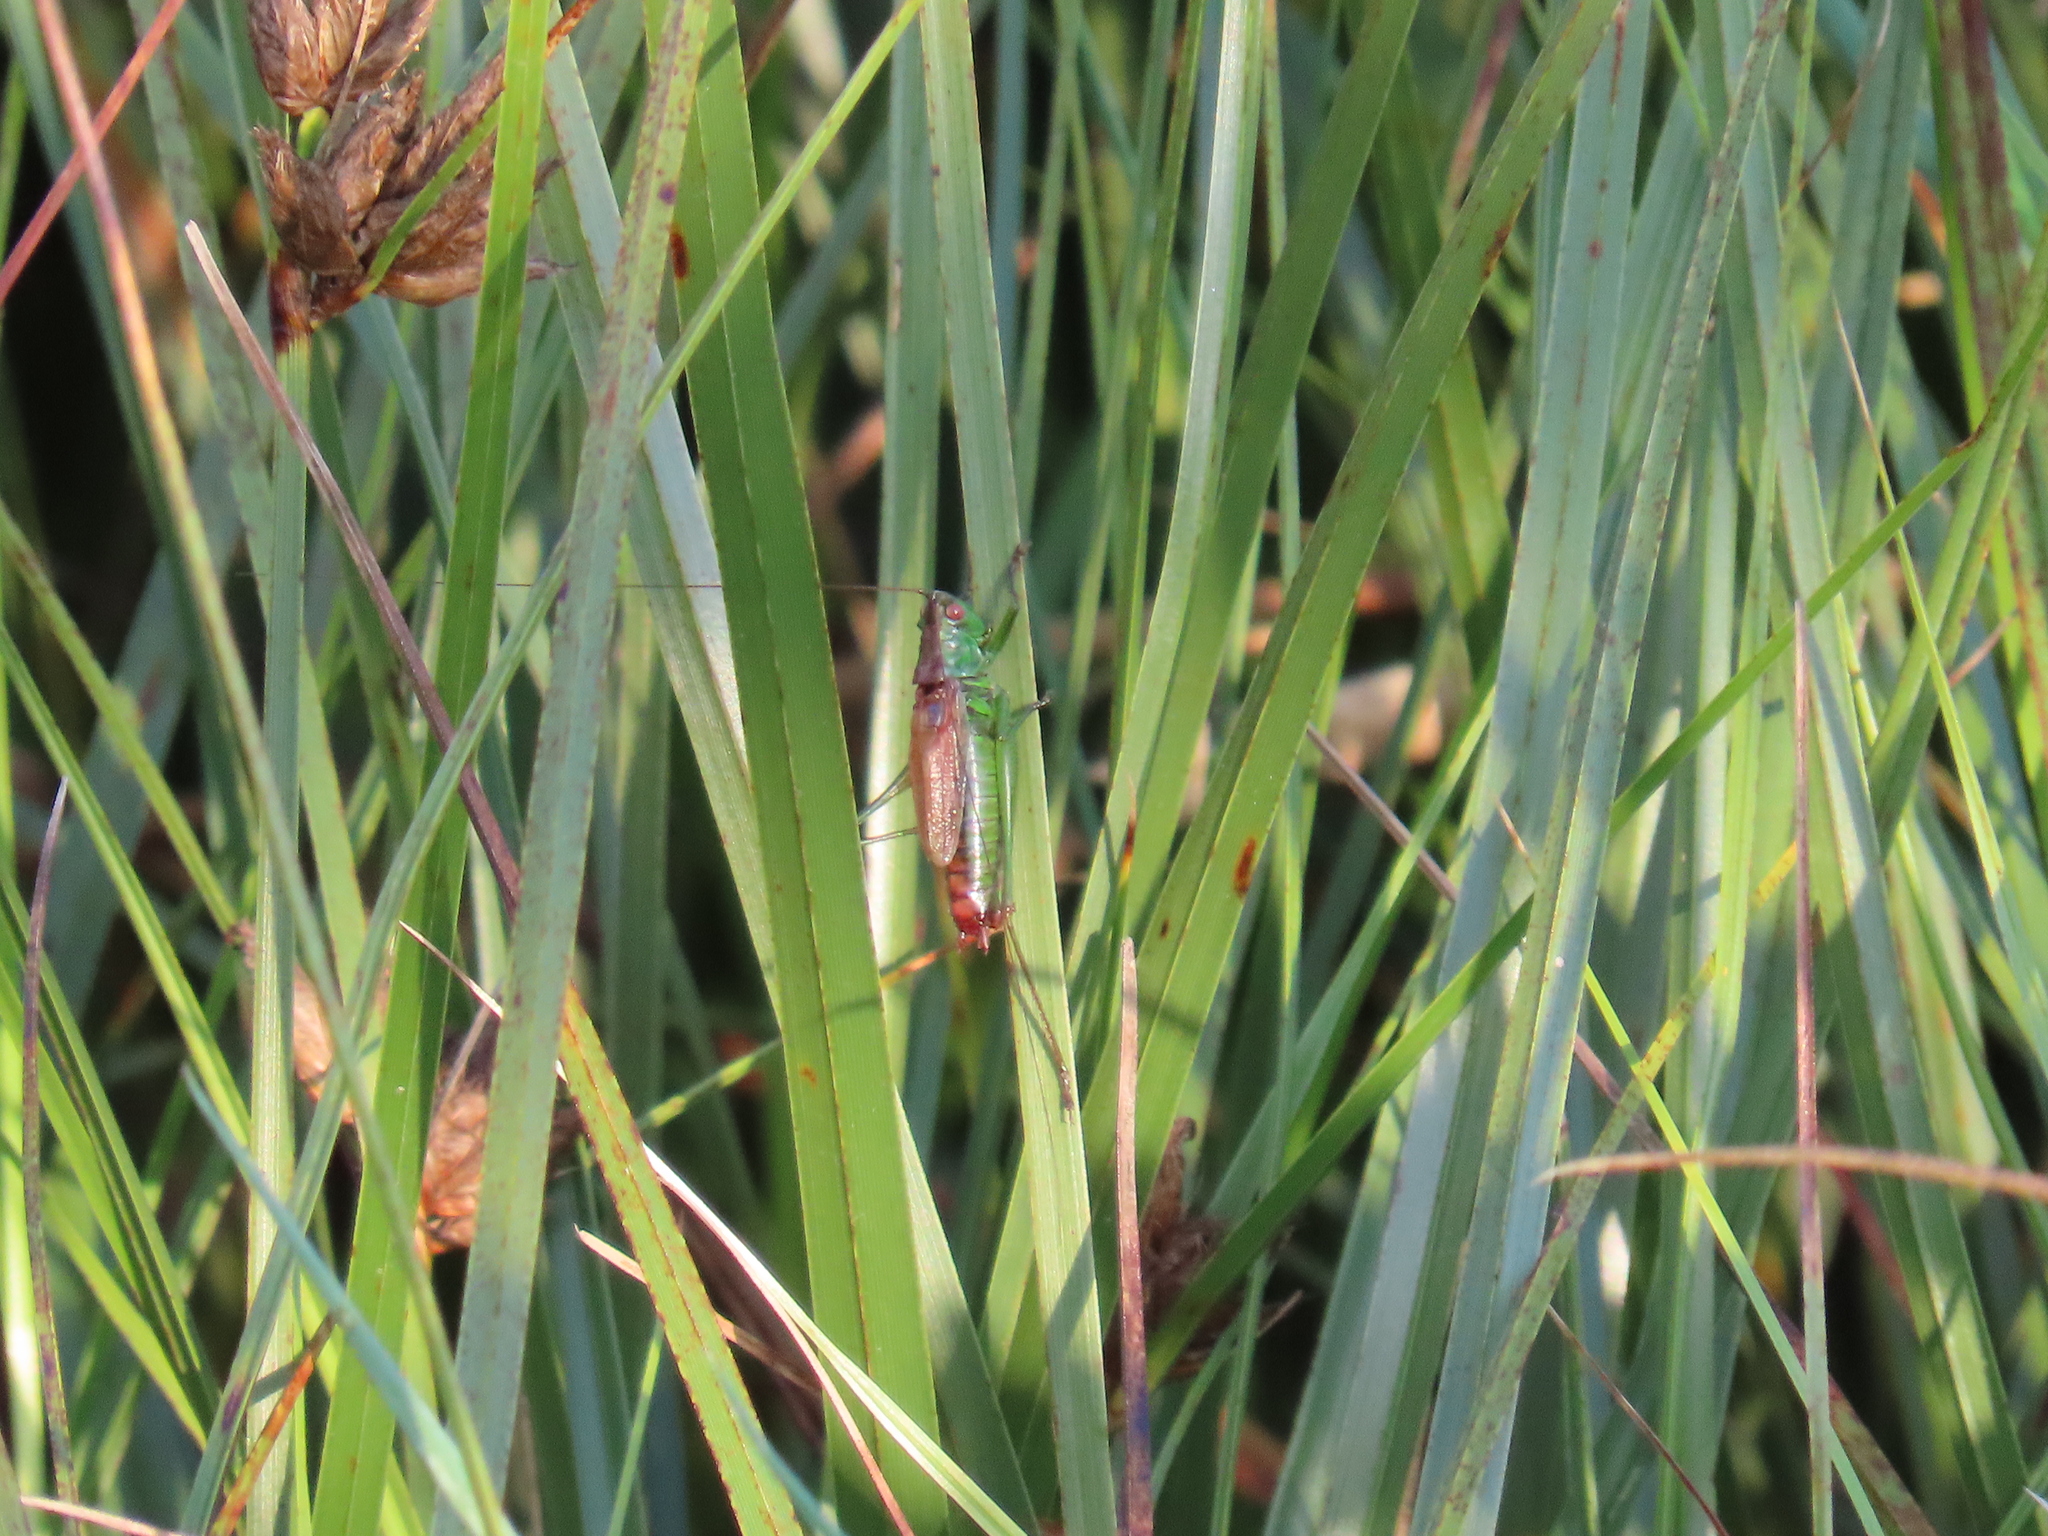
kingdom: Animalia
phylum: Arthropoda
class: Insecta
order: Orthoptera
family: Tettigoniidae
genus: Conocephalus
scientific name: Conocephalus dorsalis
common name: Short-winged conehead
